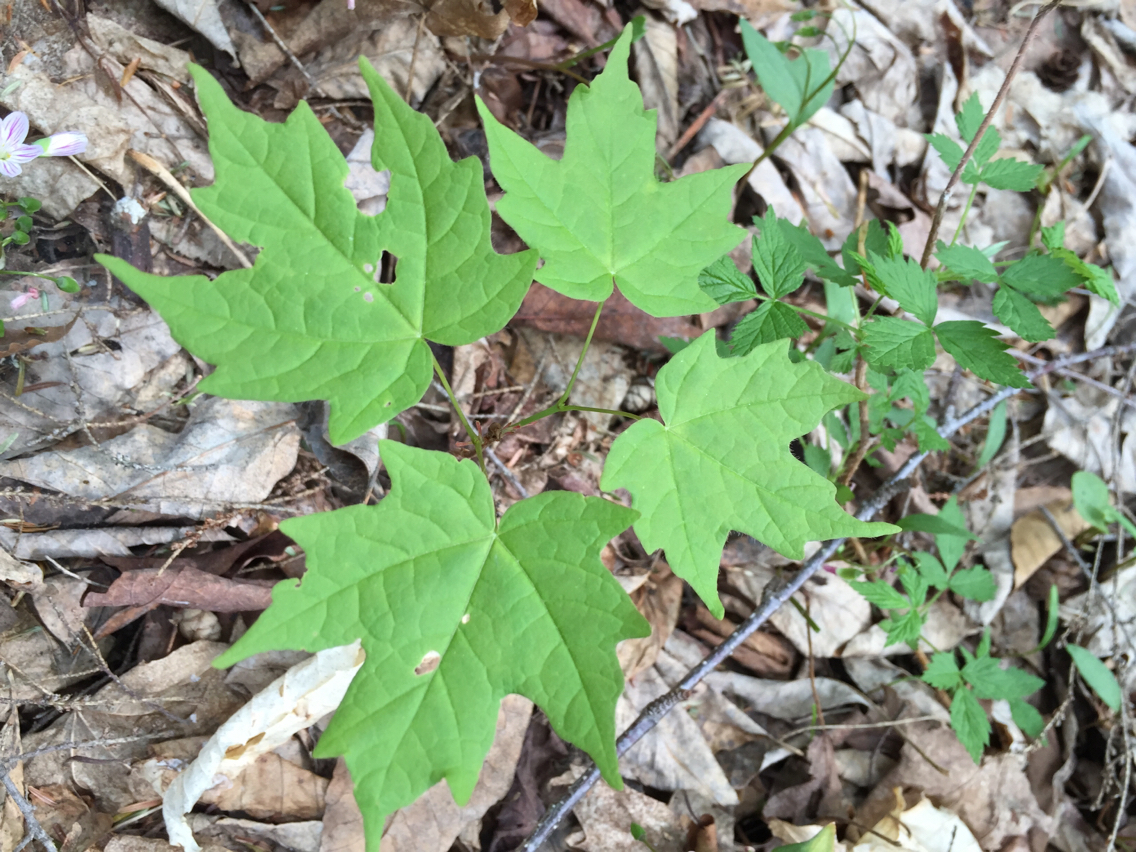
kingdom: Plantae
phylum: Tracheophyta
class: Magnoliopsida
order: Sapindales
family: Sapindaceae
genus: Acer
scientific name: Acer saccharum
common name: Sugar maple
